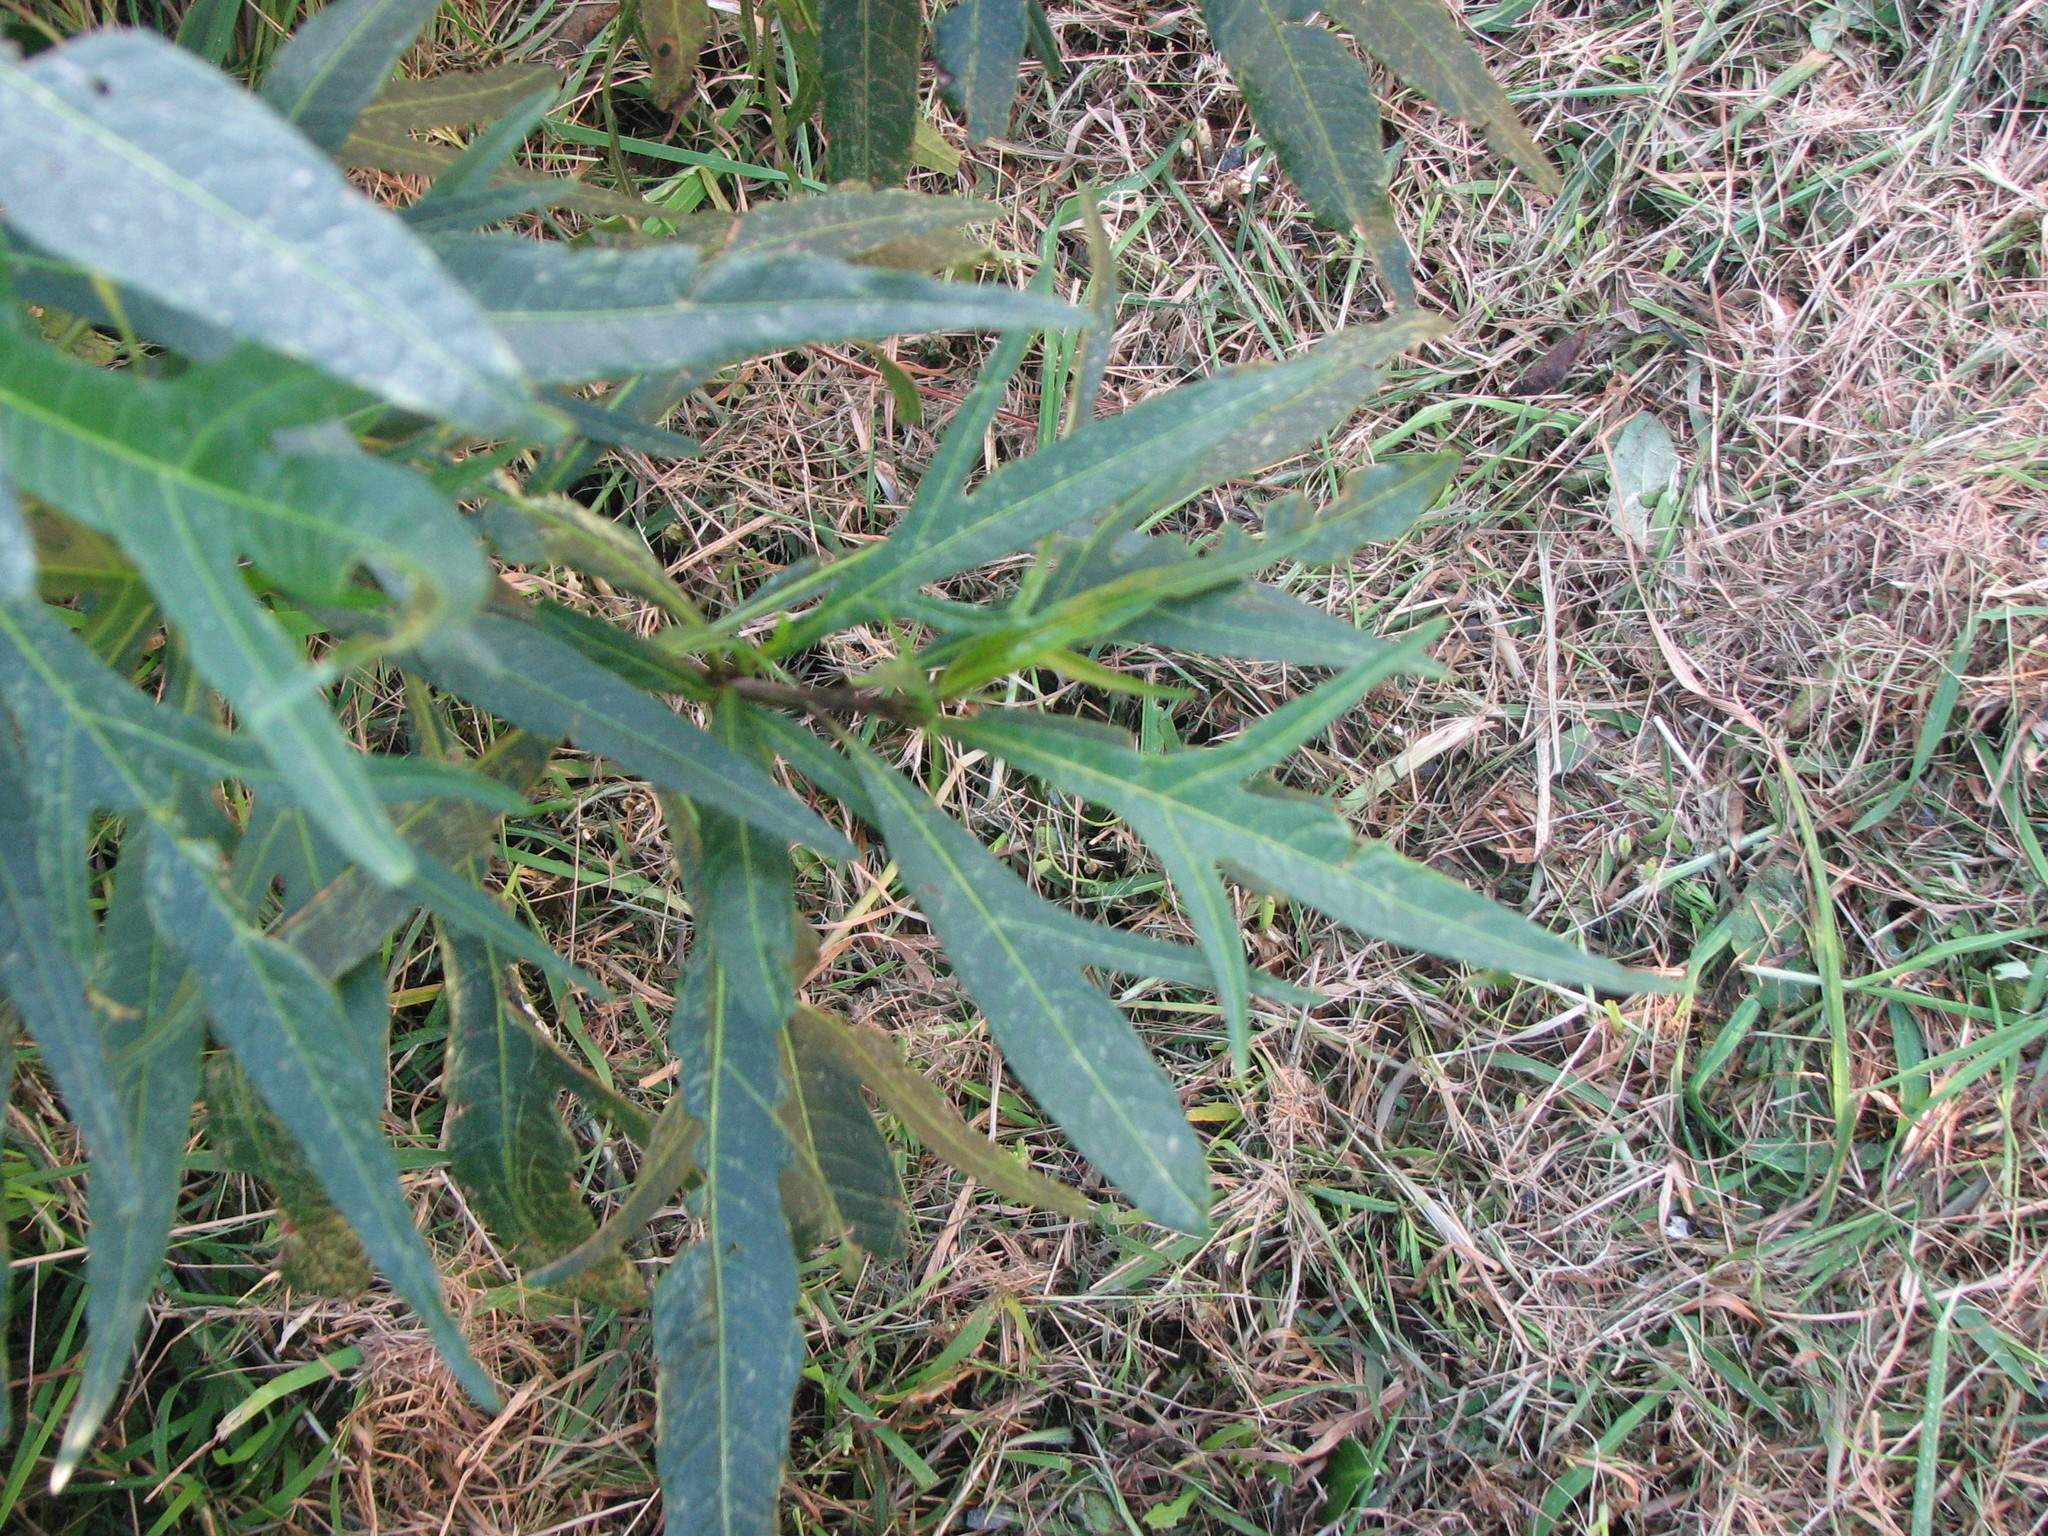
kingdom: Plantae
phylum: Tracheophyta
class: Magnoliopsida
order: Solanales
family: Solanaceae
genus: Solanum
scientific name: Solanum laciniatum
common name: Kangaroo-apple
